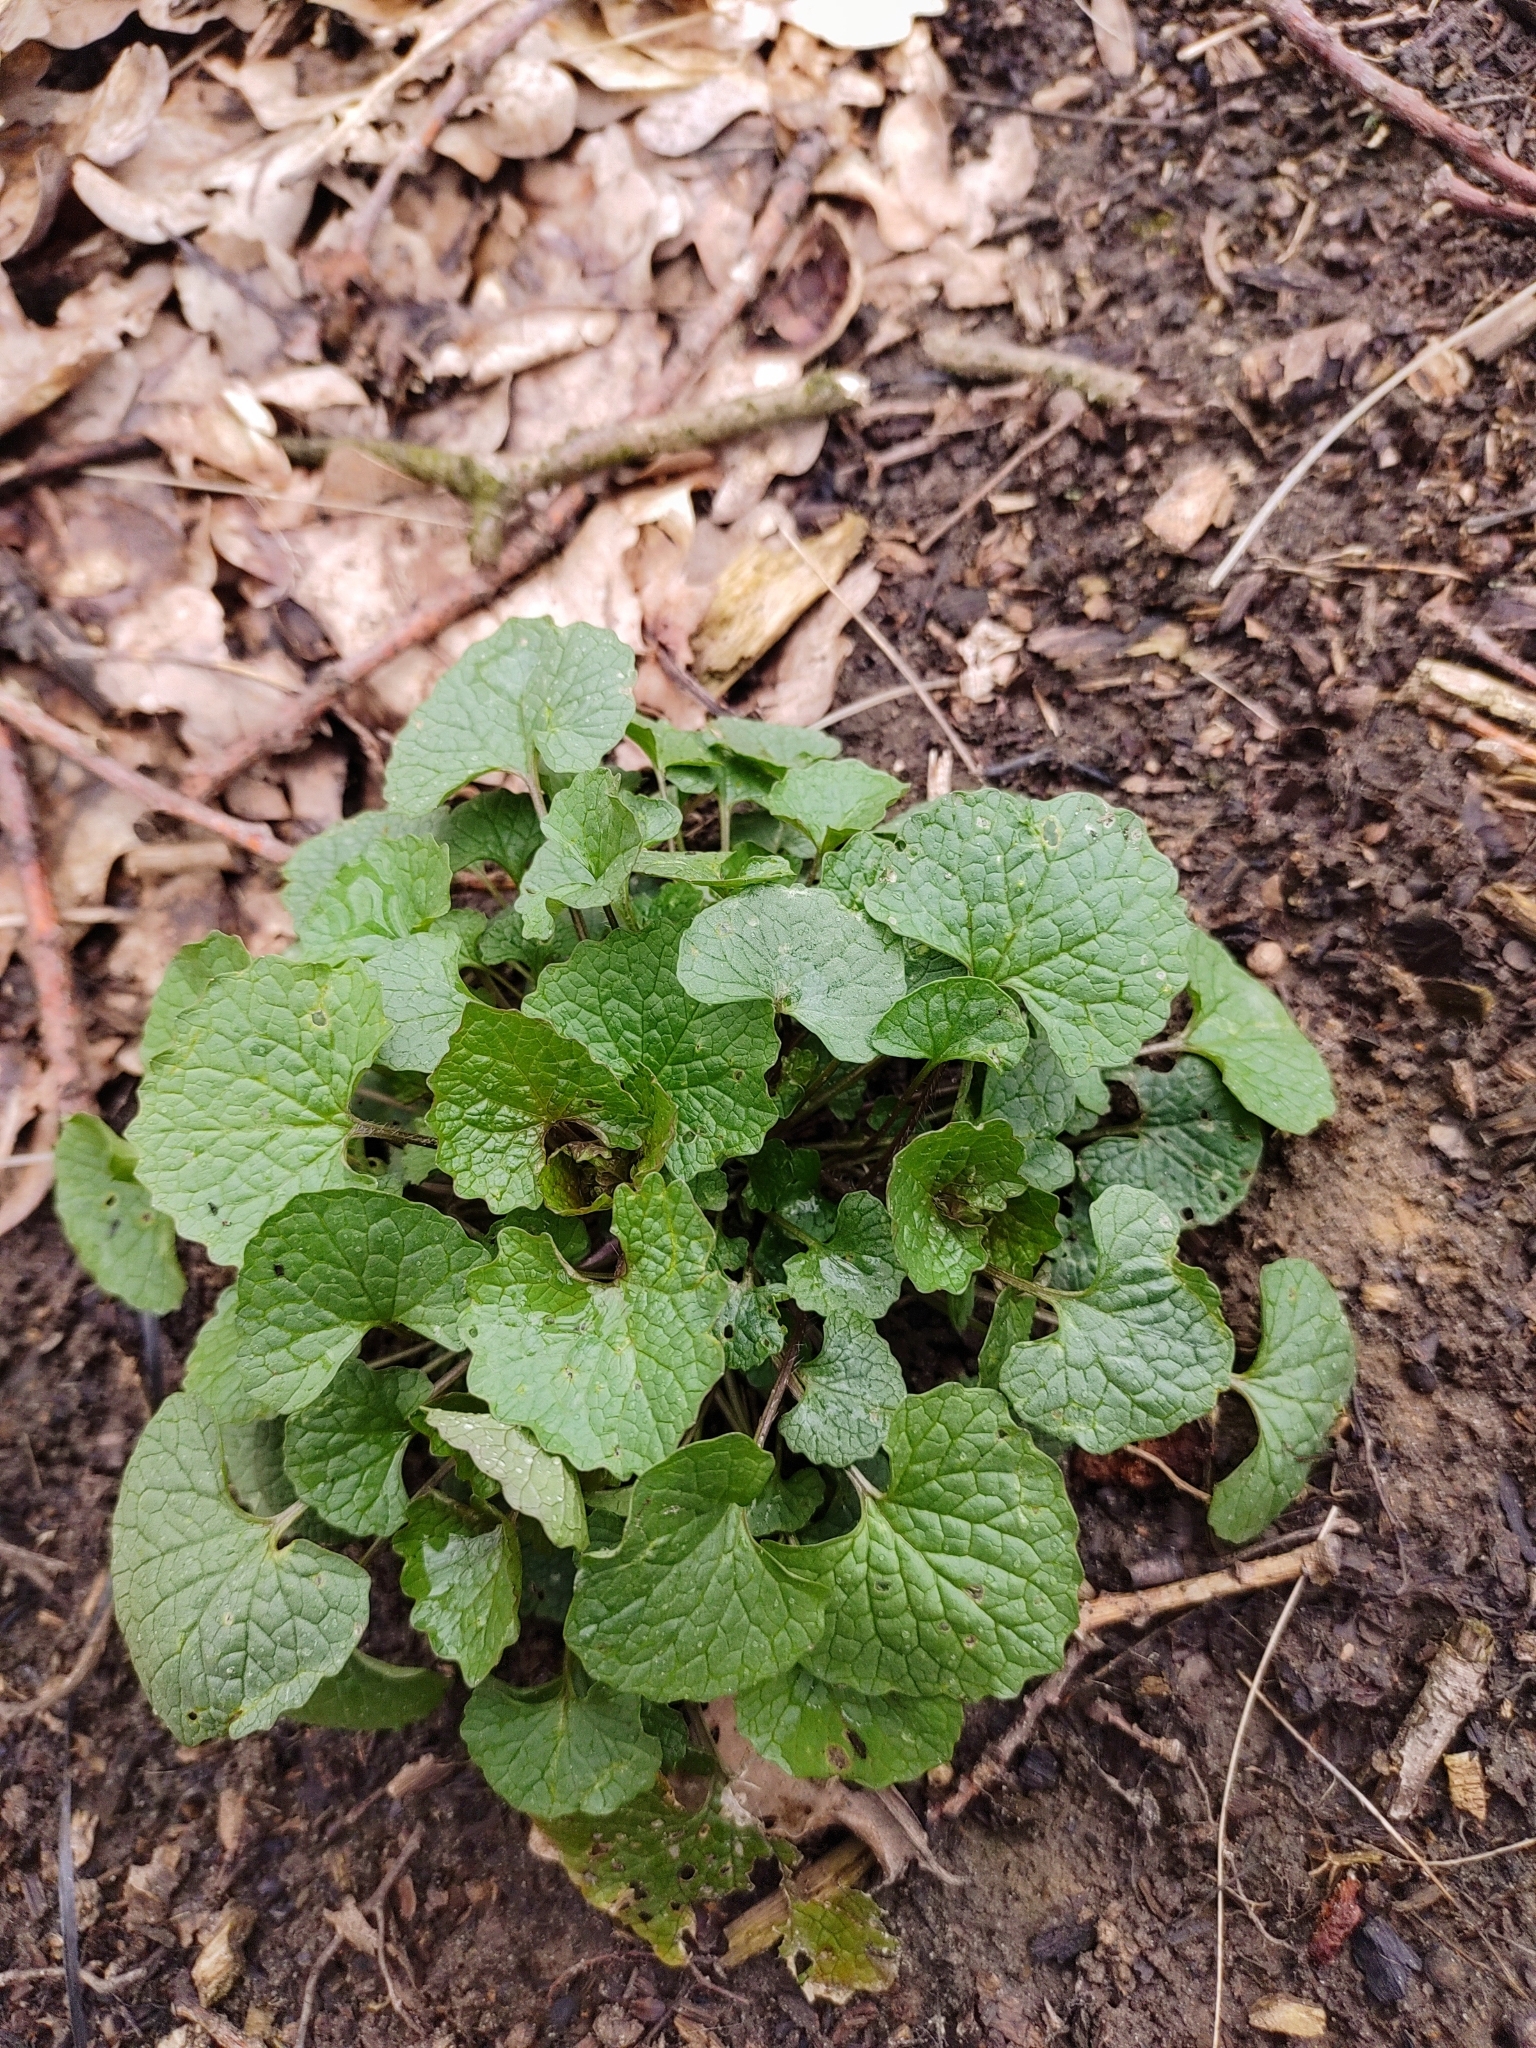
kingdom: Plantae
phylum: Tracheophyta
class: Magnoliopsida
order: Brassicales
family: Brassicaceae
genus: Alliaria
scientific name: Alliaria petiolata
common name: Garlic mustard
